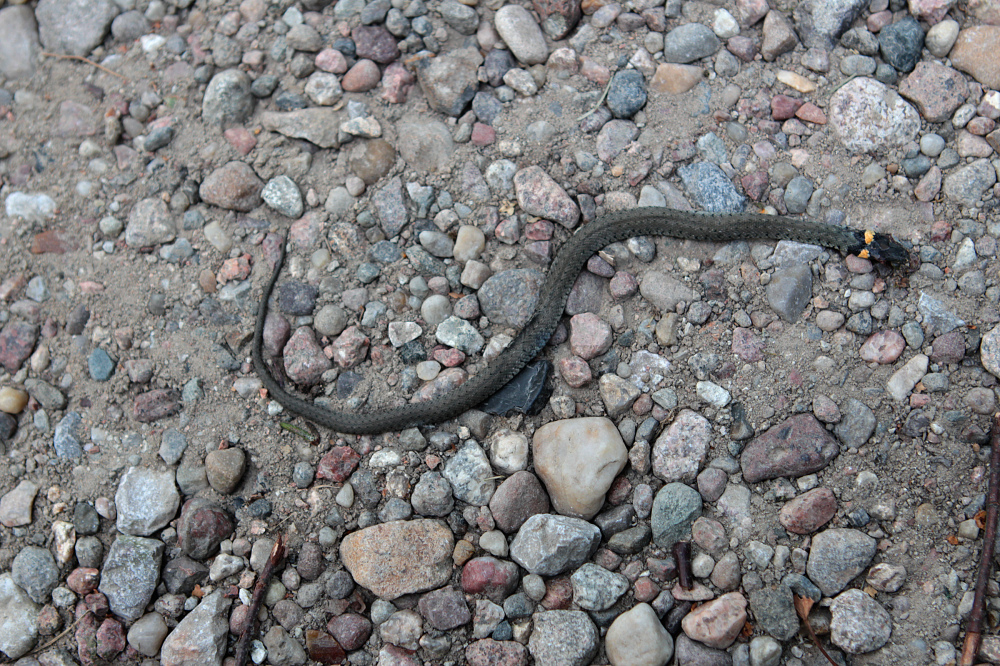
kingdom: Animalia
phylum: Chordata
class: Squamata
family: Colubridae
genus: Natrix
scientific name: Natrix natrix
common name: Grass snake
